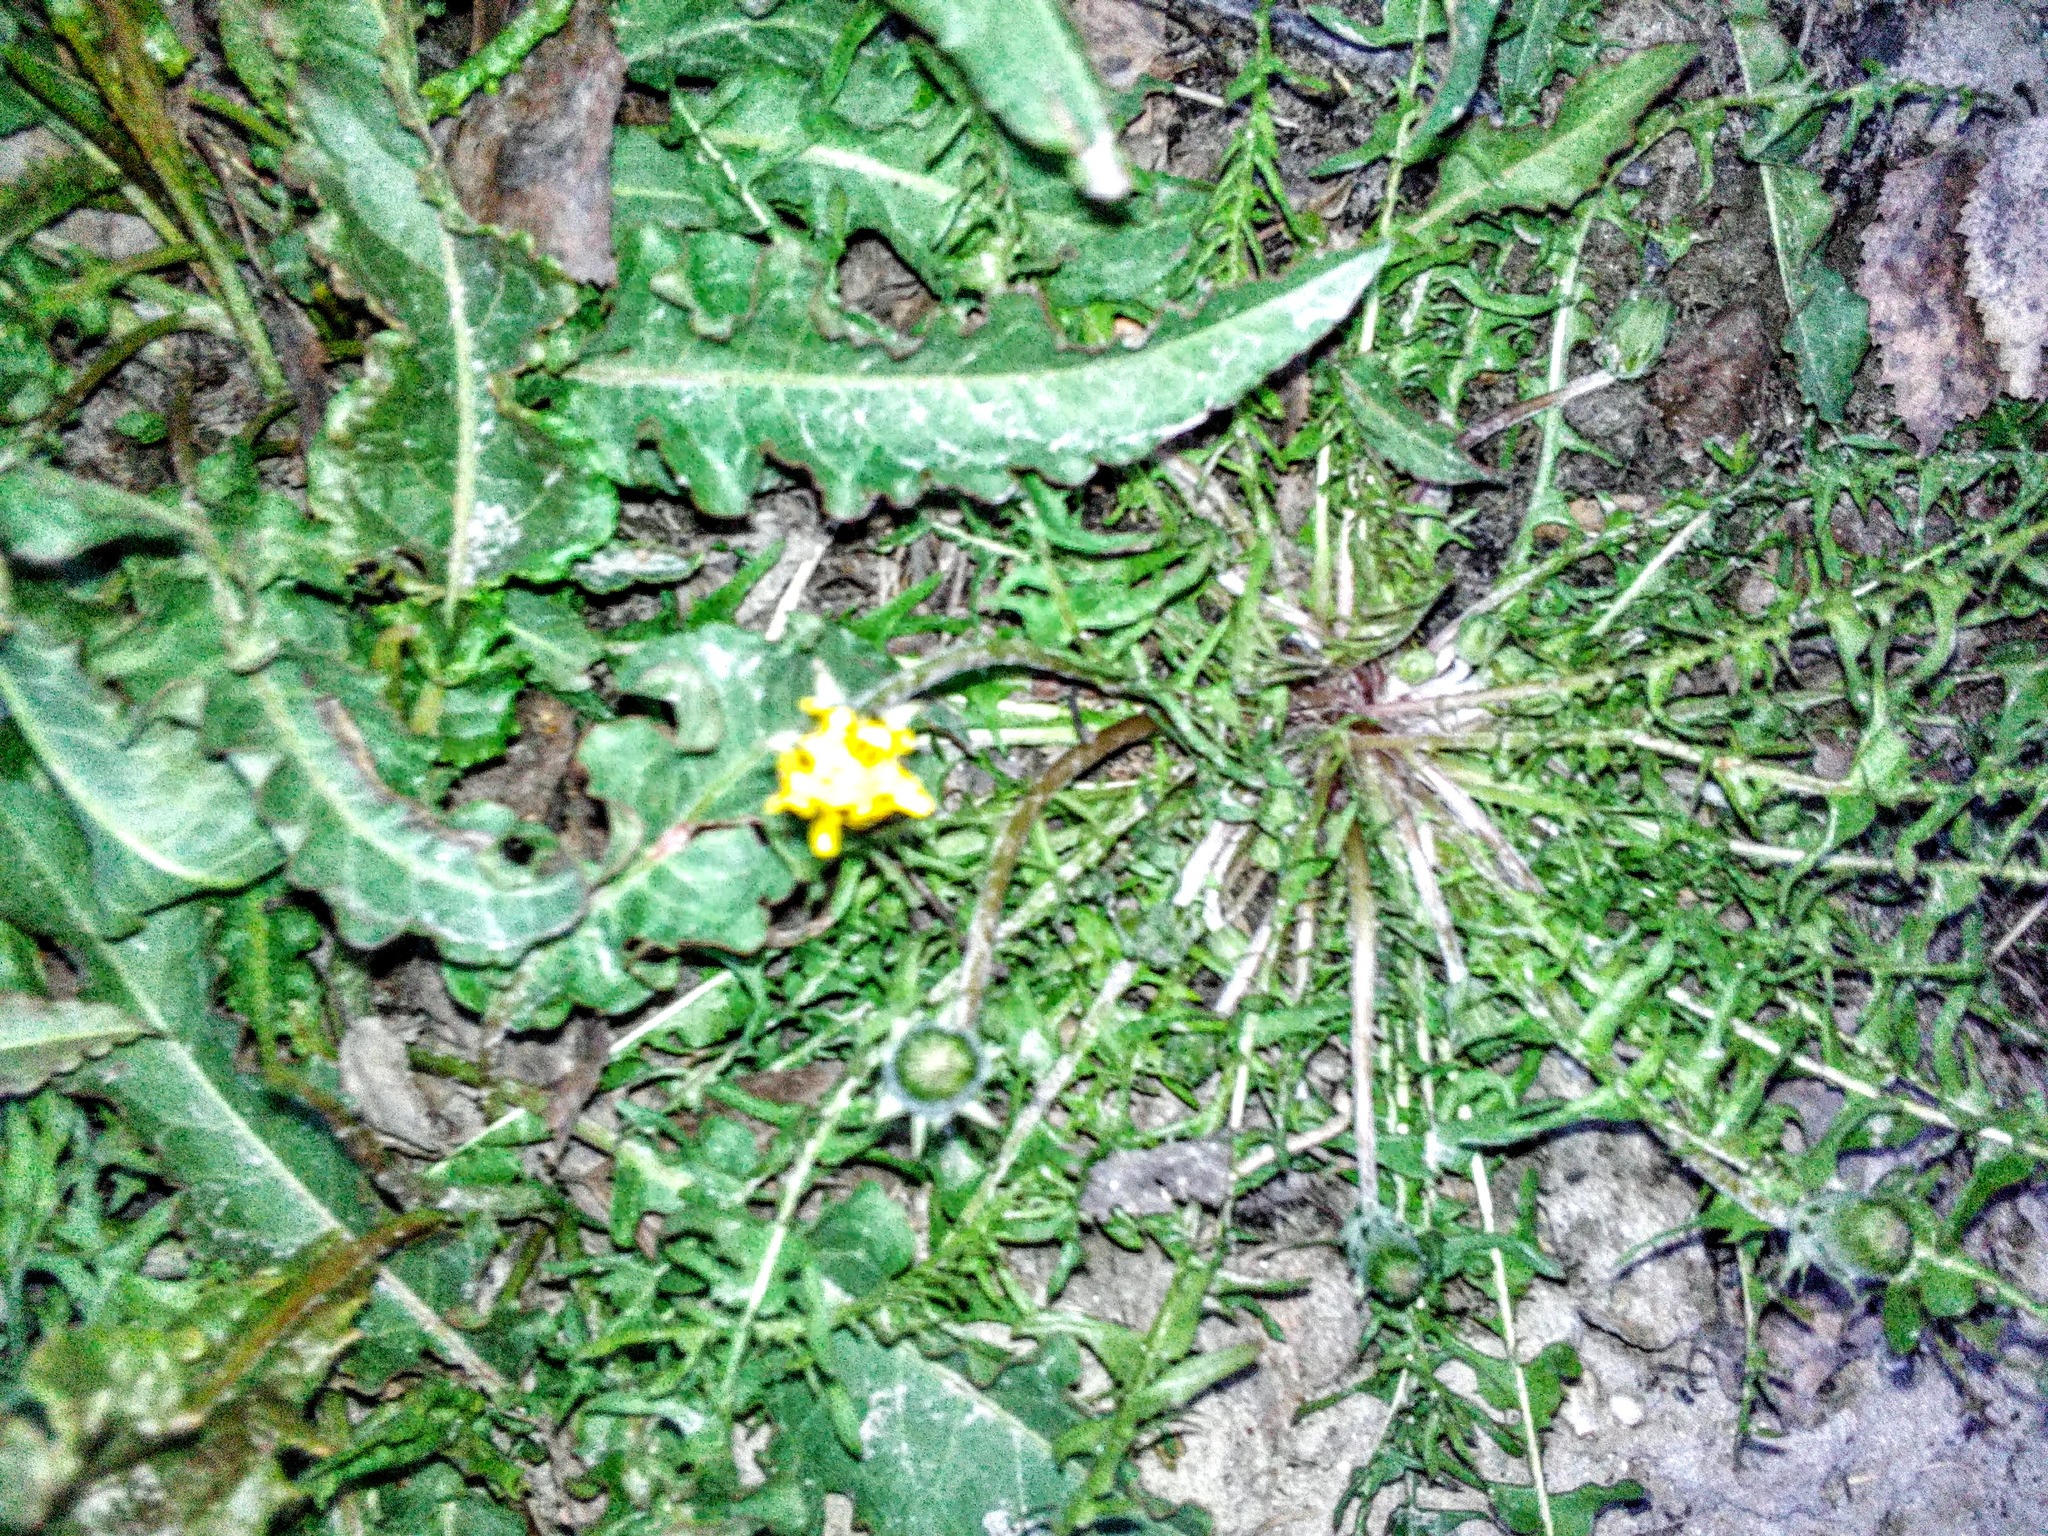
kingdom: Plantae
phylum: Tracheophyta
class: Magnoliopsida
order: Asterales
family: Asteraceae
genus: Taraxacum
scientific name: Taraxacum officinale
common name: Common dandelion
